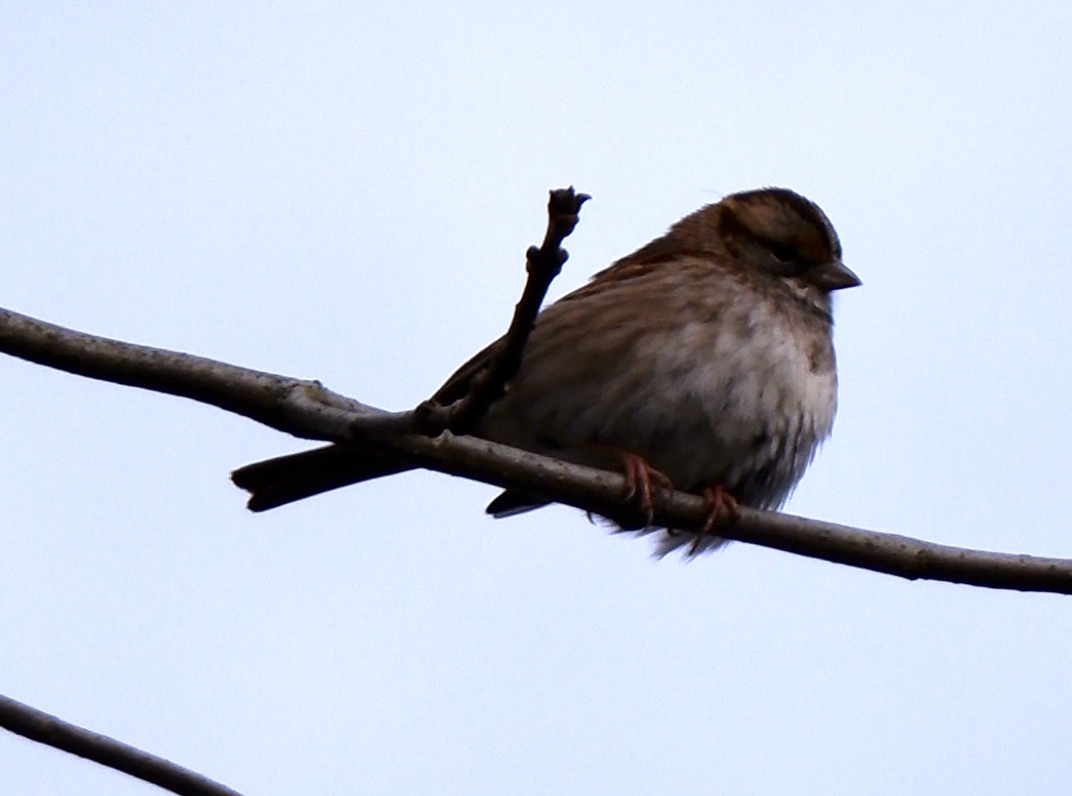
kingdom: Animalia
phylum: Chordata
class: Aves
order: Passeriformes
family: Passerellidae
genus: Zonotrichia
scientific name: Zonotrichia albicollis
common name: White-throated sparrow
